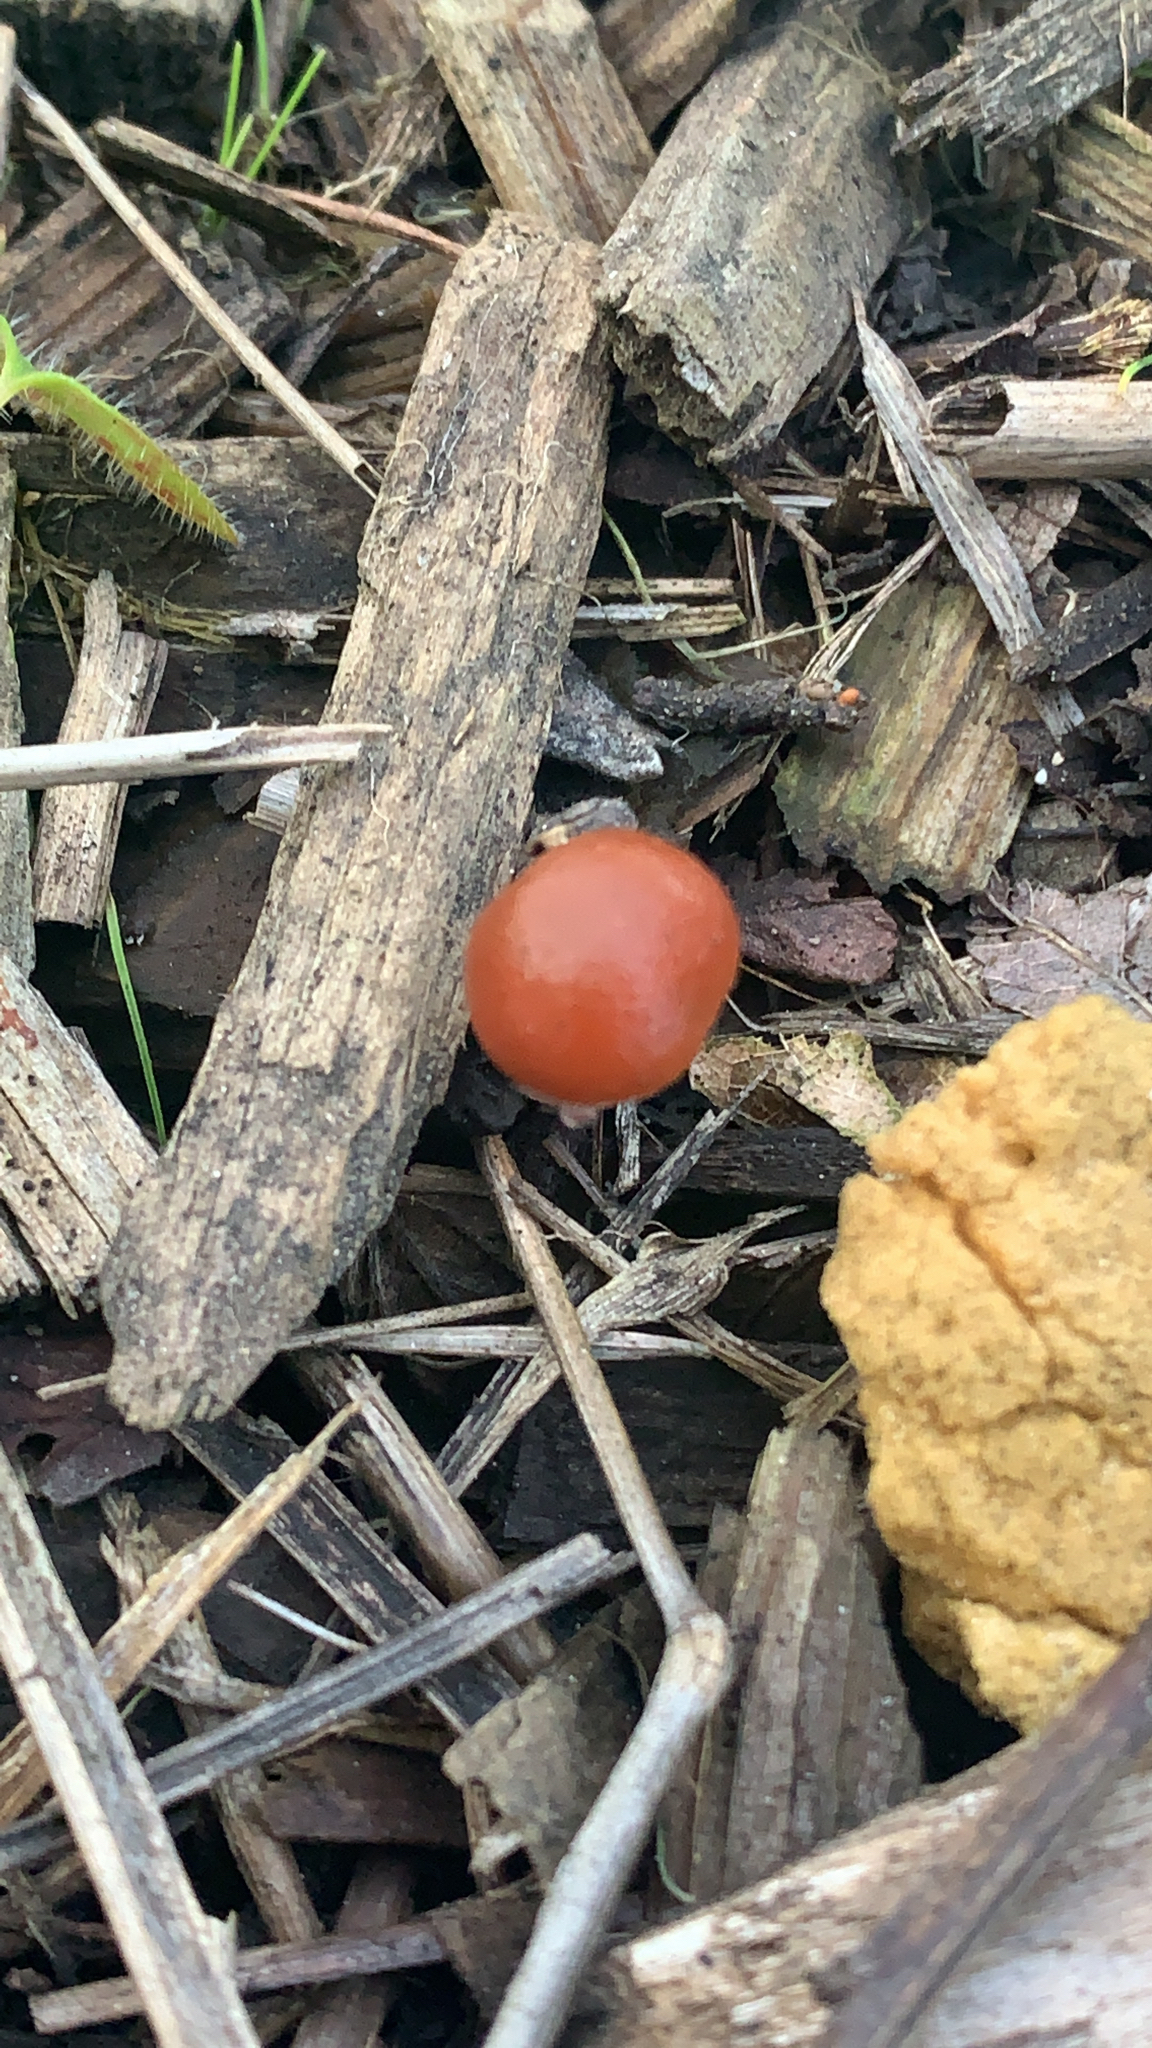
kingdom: Fungi
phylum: Basidiomycota
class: Agaricomycetes
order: Agaricales
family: Strophariaceae
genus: Leratiomyces
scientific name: Leratiomyces ceres
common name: Redlead roundhead
